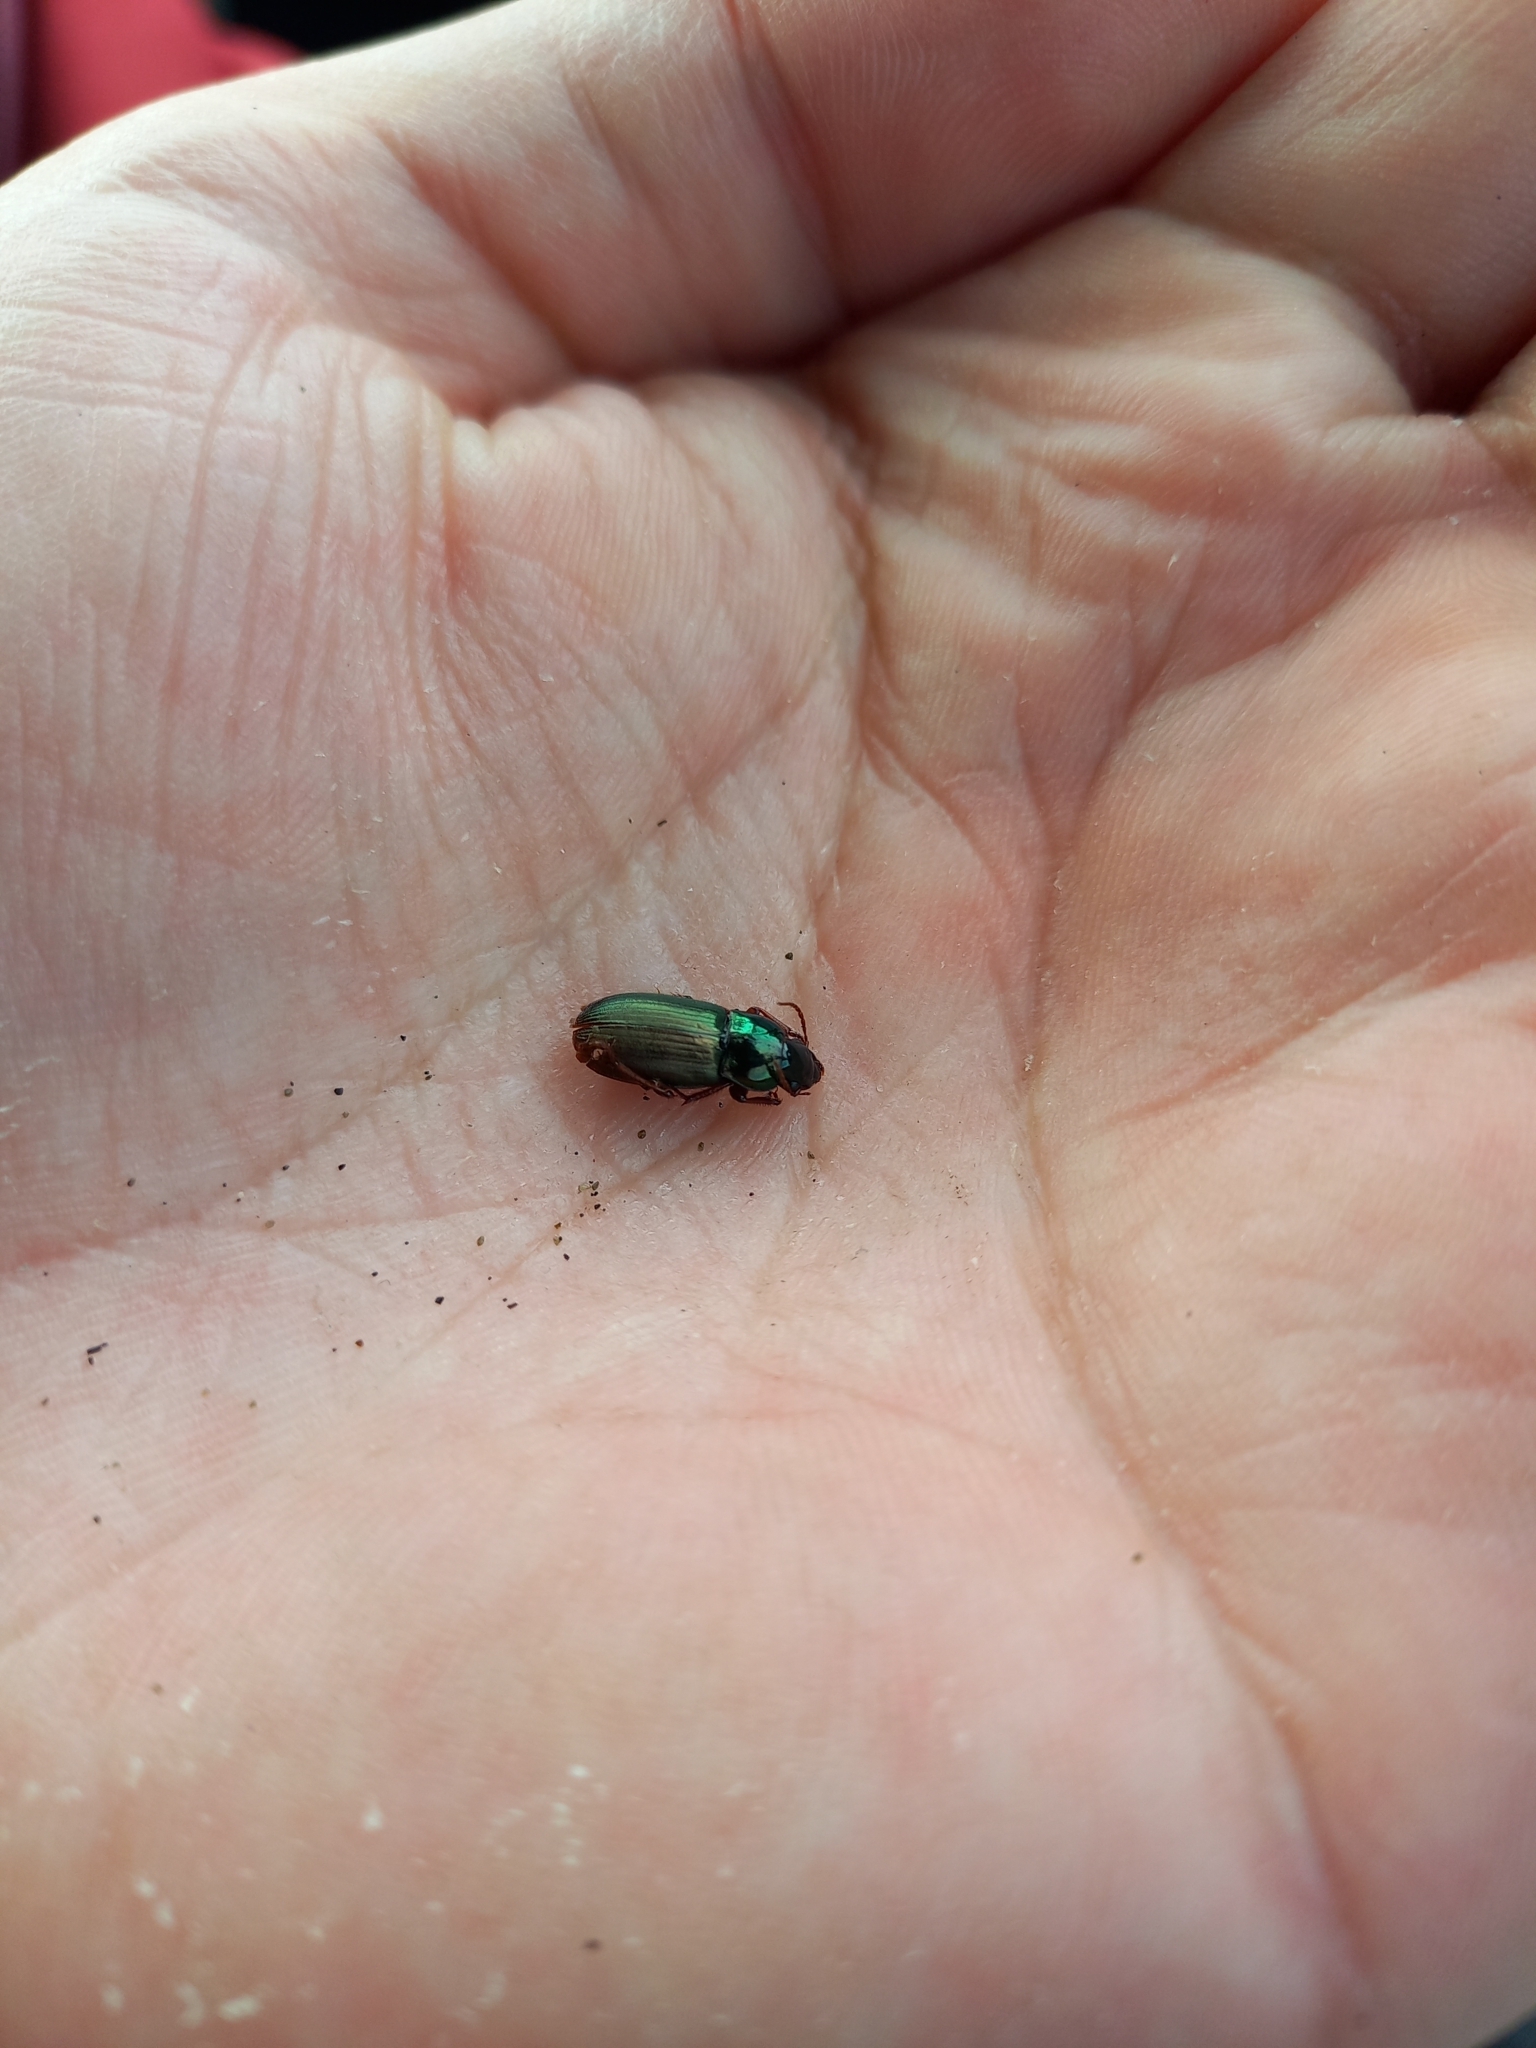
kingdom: Animalia
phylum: Arthropoda
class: Insecta
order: Coleoptera
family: Carabidae
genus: Harpalus
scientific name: Harpalus affinis
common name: Polychrome harp ground beetle
